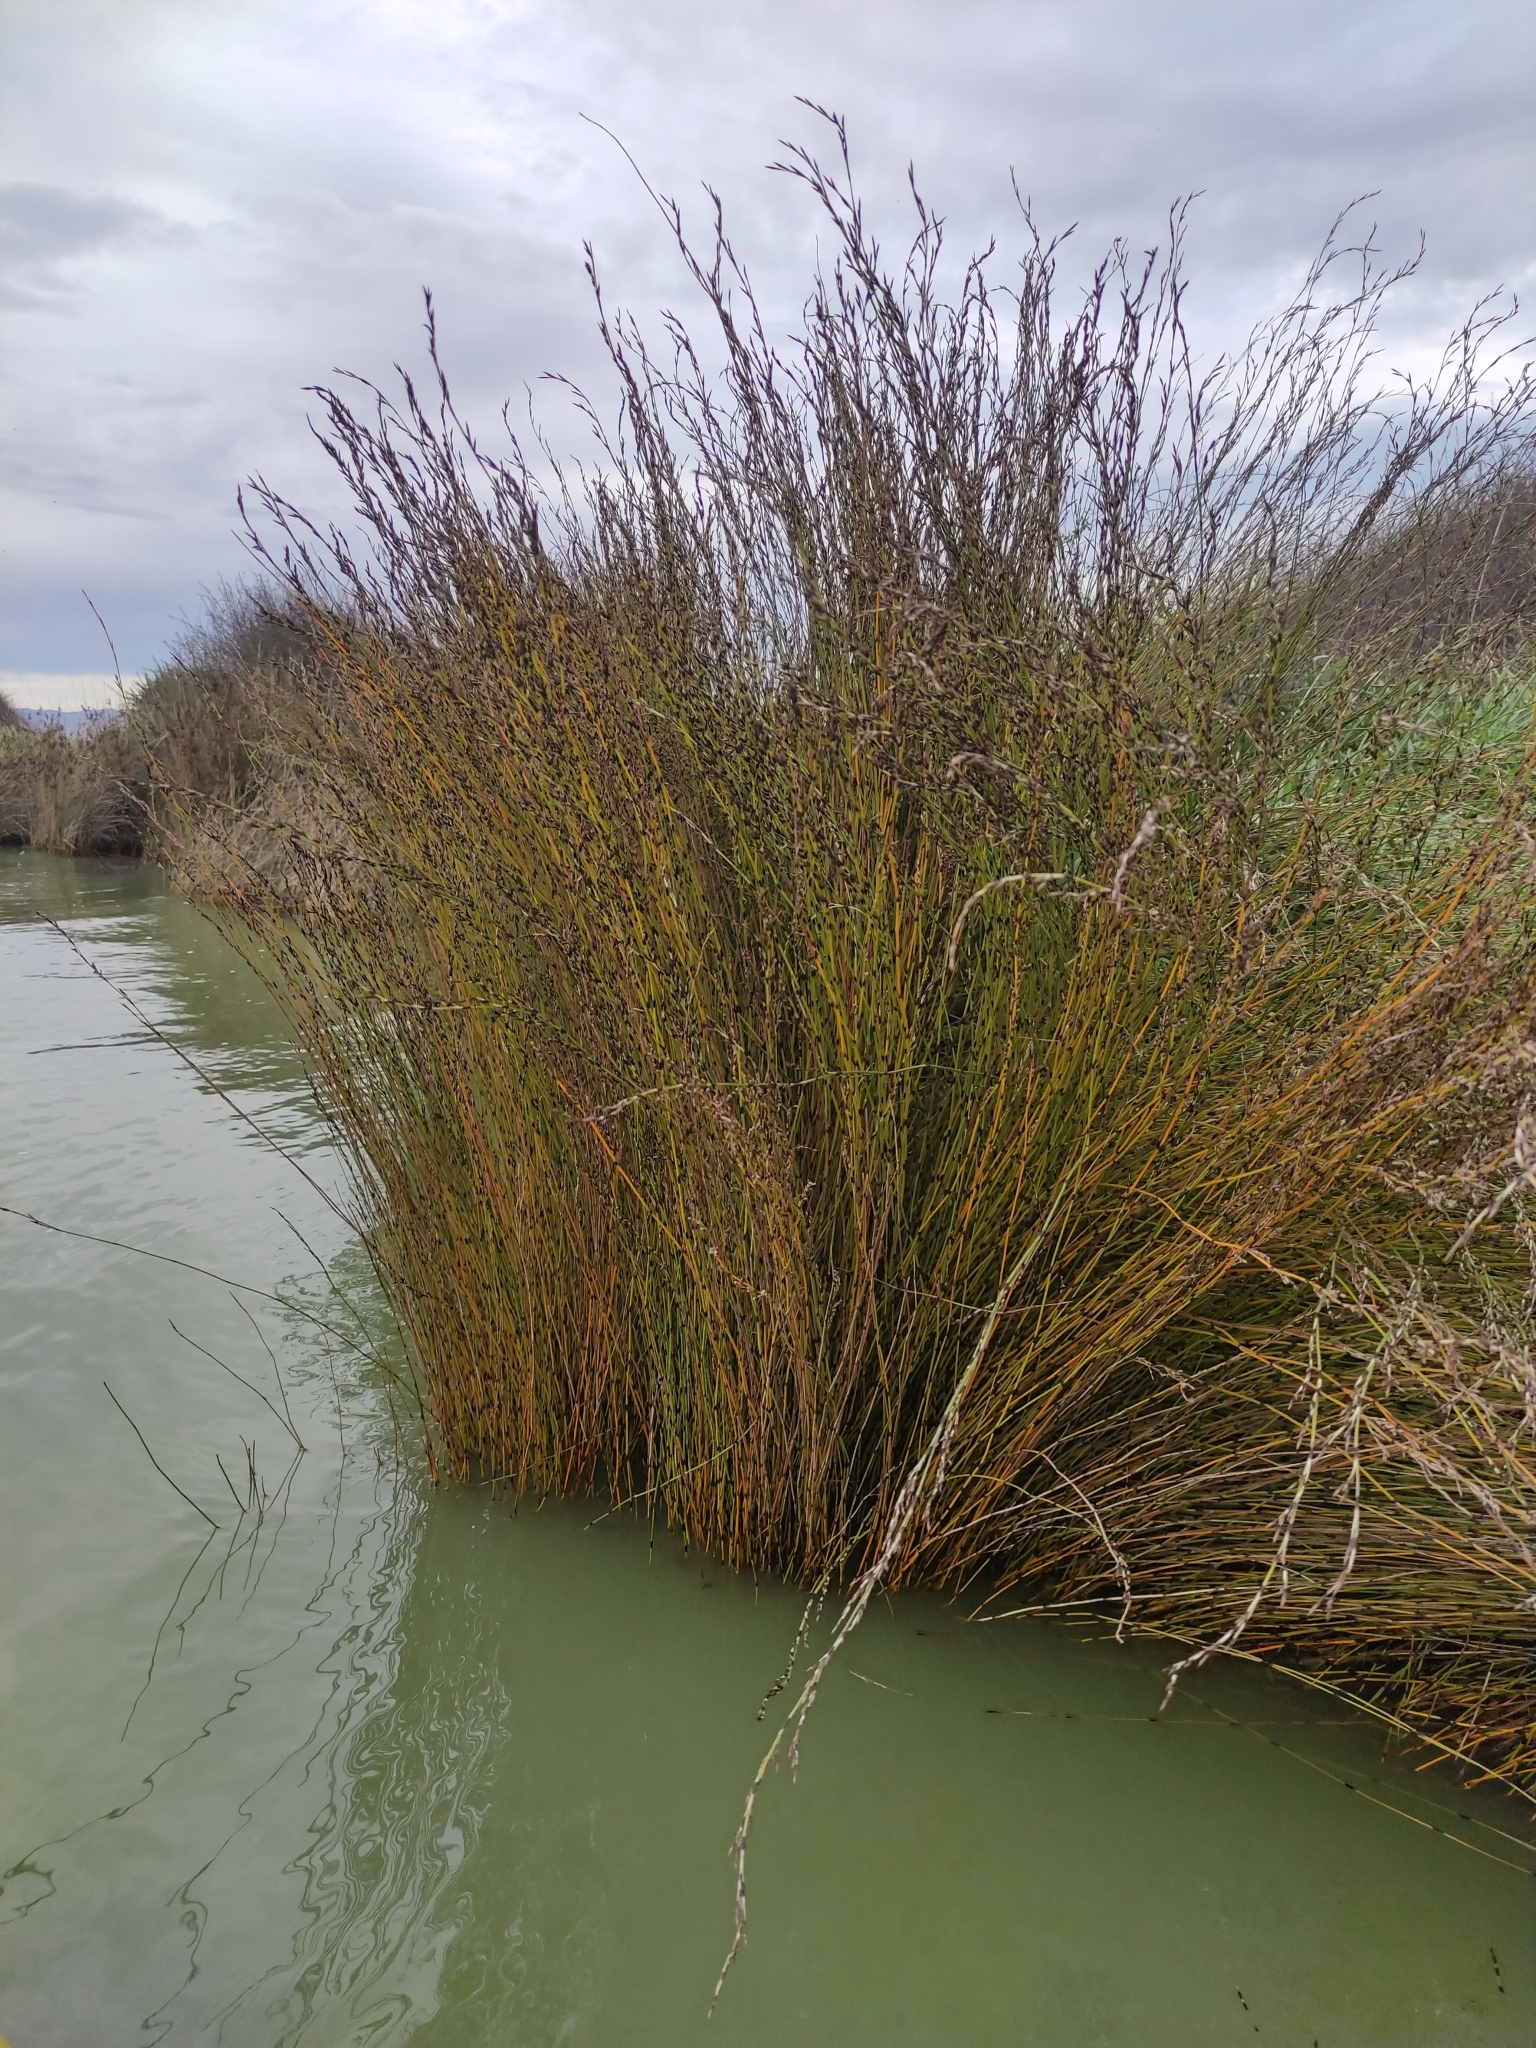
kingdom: Plantae
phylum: Tracheophyta
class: Liliopsida
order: Poales
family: Restionaceae
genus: Apodasmia
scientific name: Apodasmia similis
